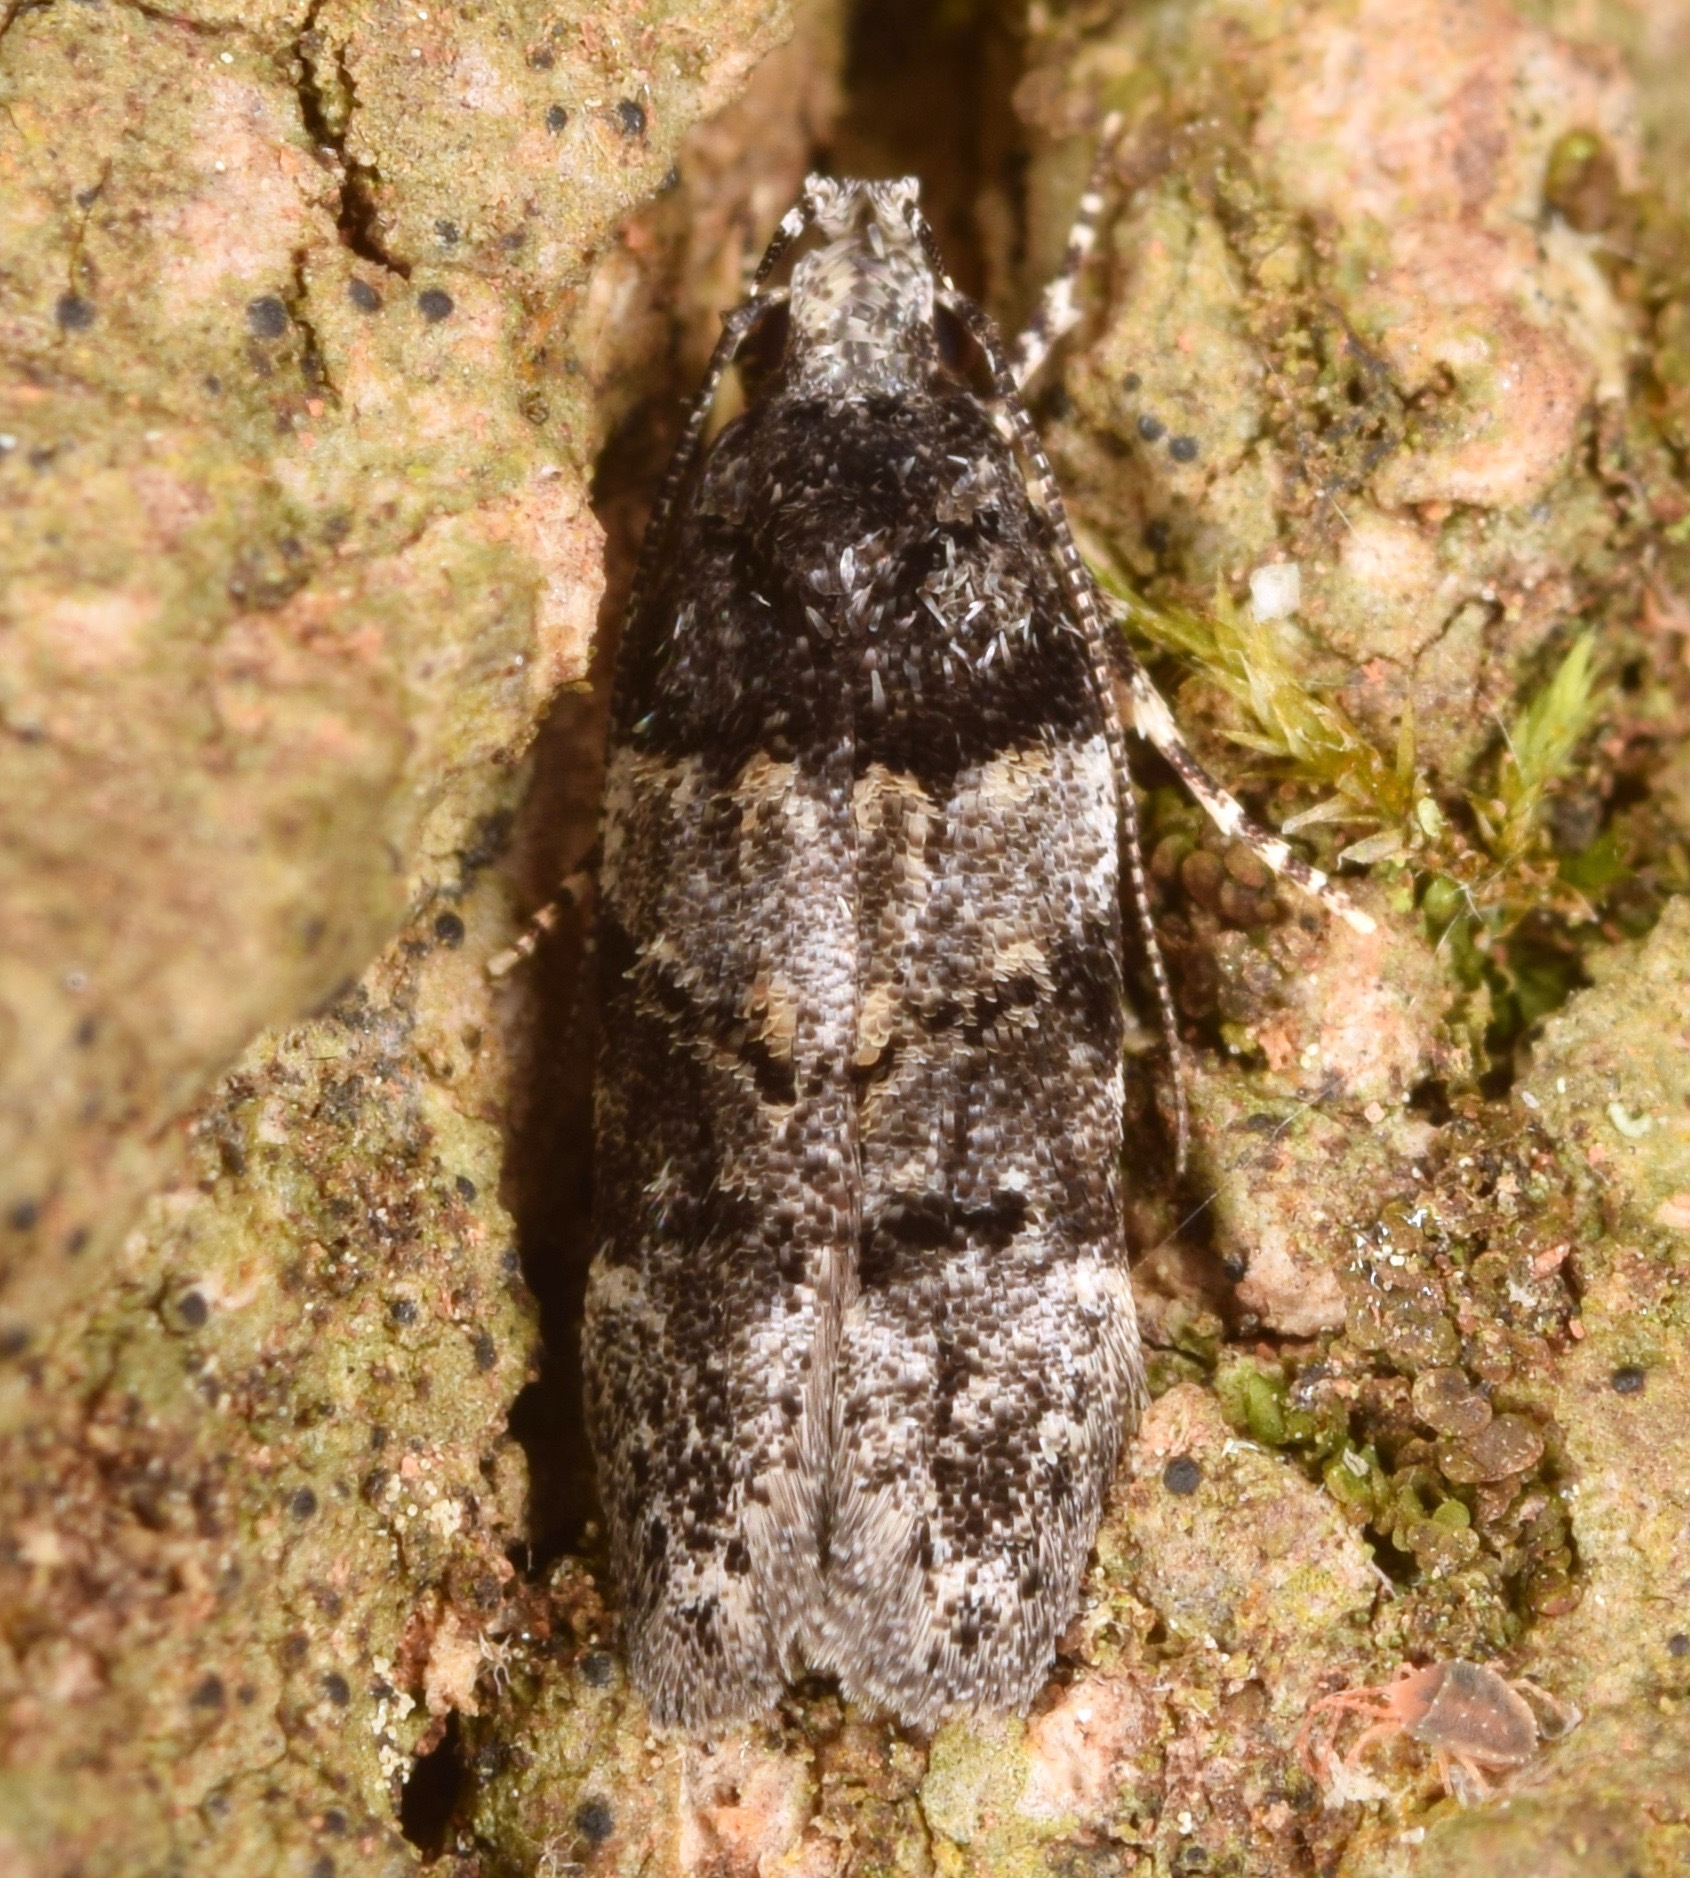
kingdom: Animalia
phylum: Arthropoda
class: Insecta
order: Lepidoptera
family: Gelechiidae
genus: Pubitelphusa
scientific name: Pubitelphusa latifasciella
